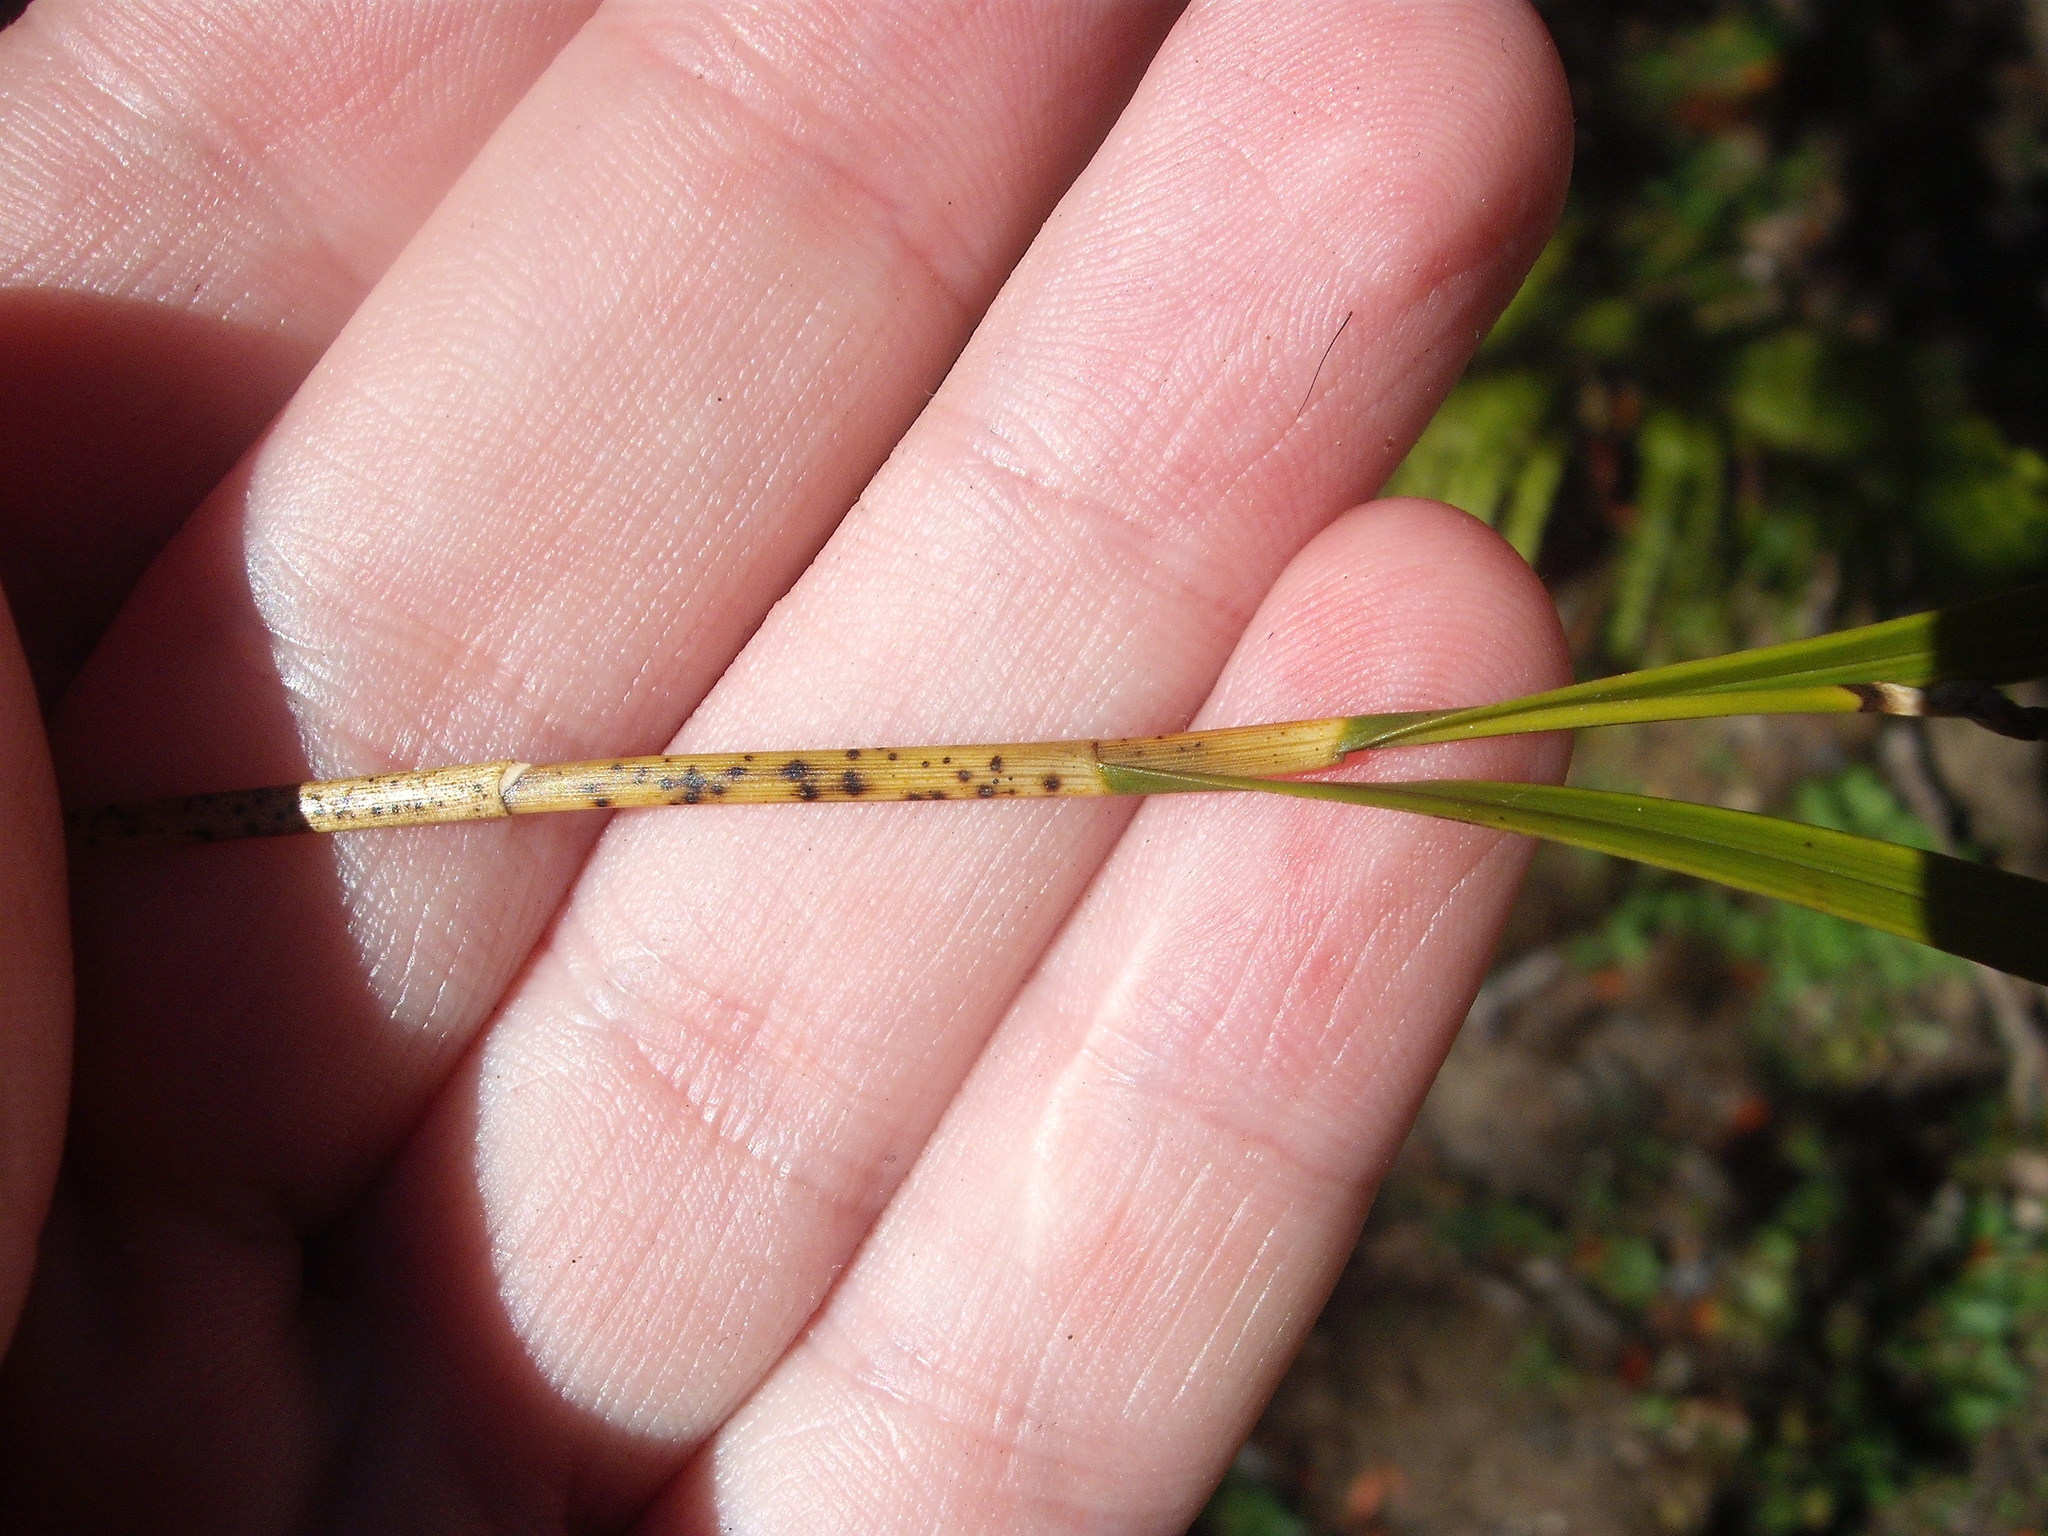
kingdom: Plantae
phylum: Tracheophyta
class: Liliopsida
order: Asparagales
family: Orchidaceae
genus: Earina
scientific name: Earina mucronata
